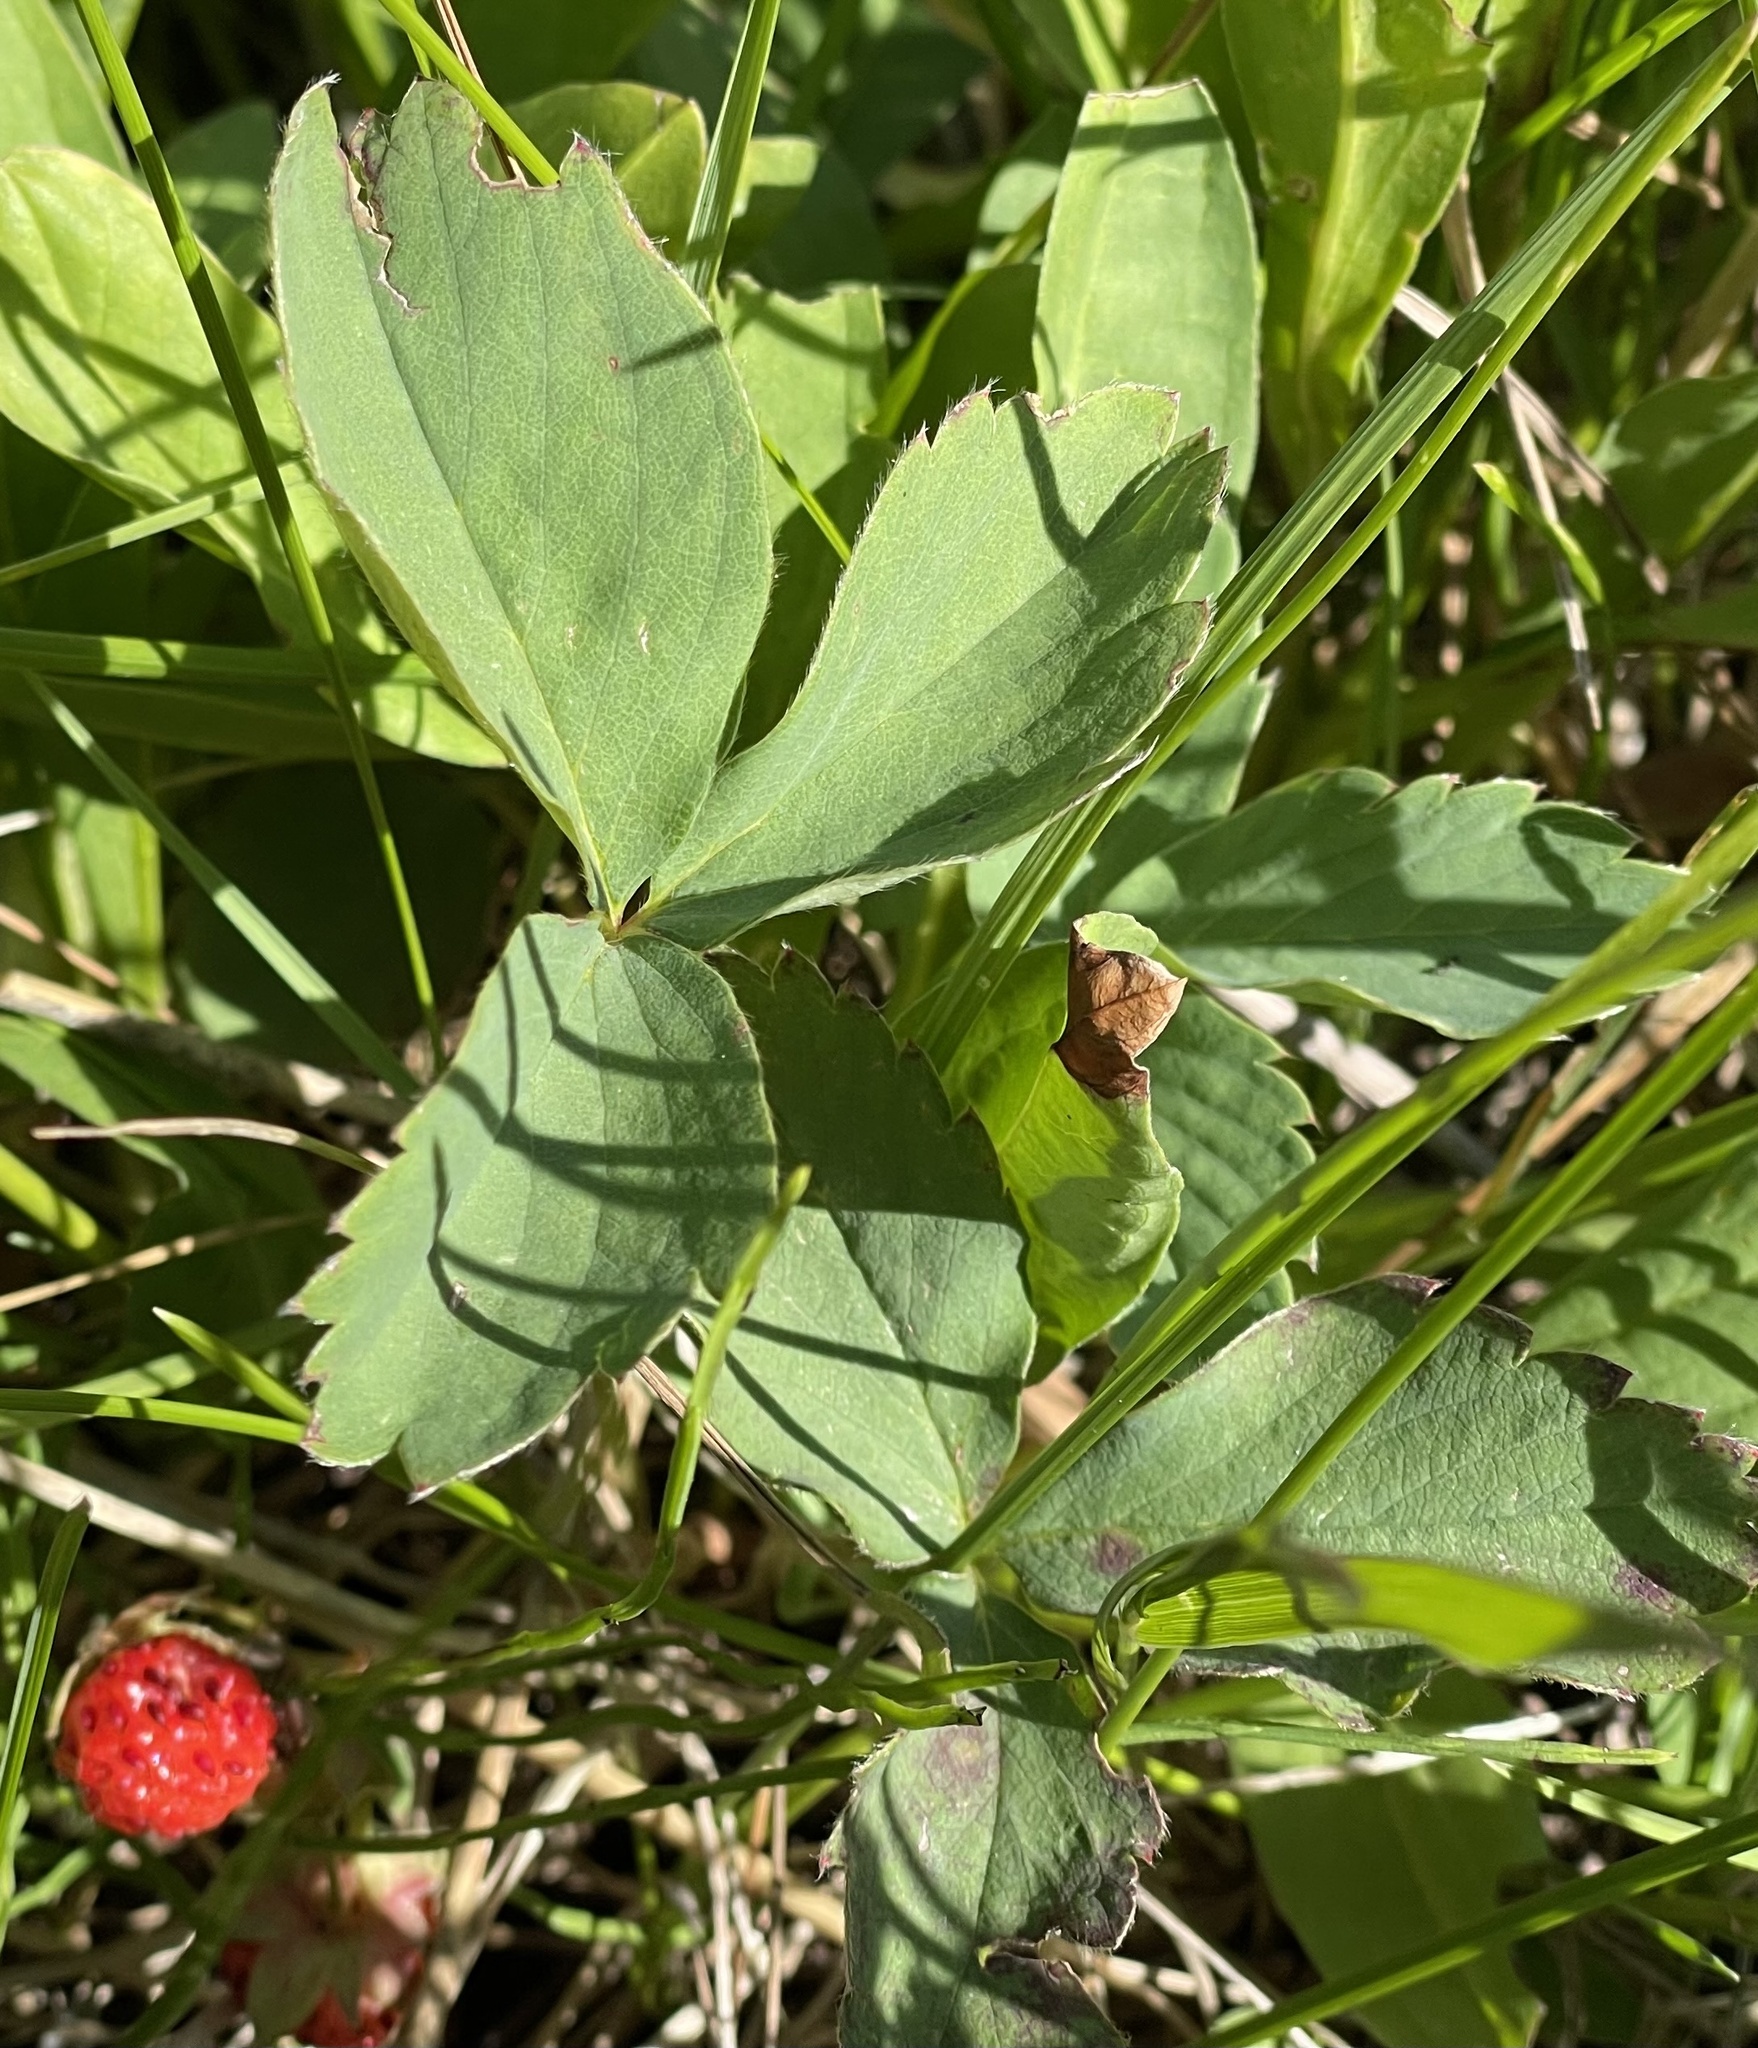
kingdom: Plantae
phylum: Tracheophyta
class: Magnoliopsida
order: Rosales
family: Rosaceae
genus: Fragaria
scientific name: Fragaria virginiana
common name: Thickleaved wild strawberry
